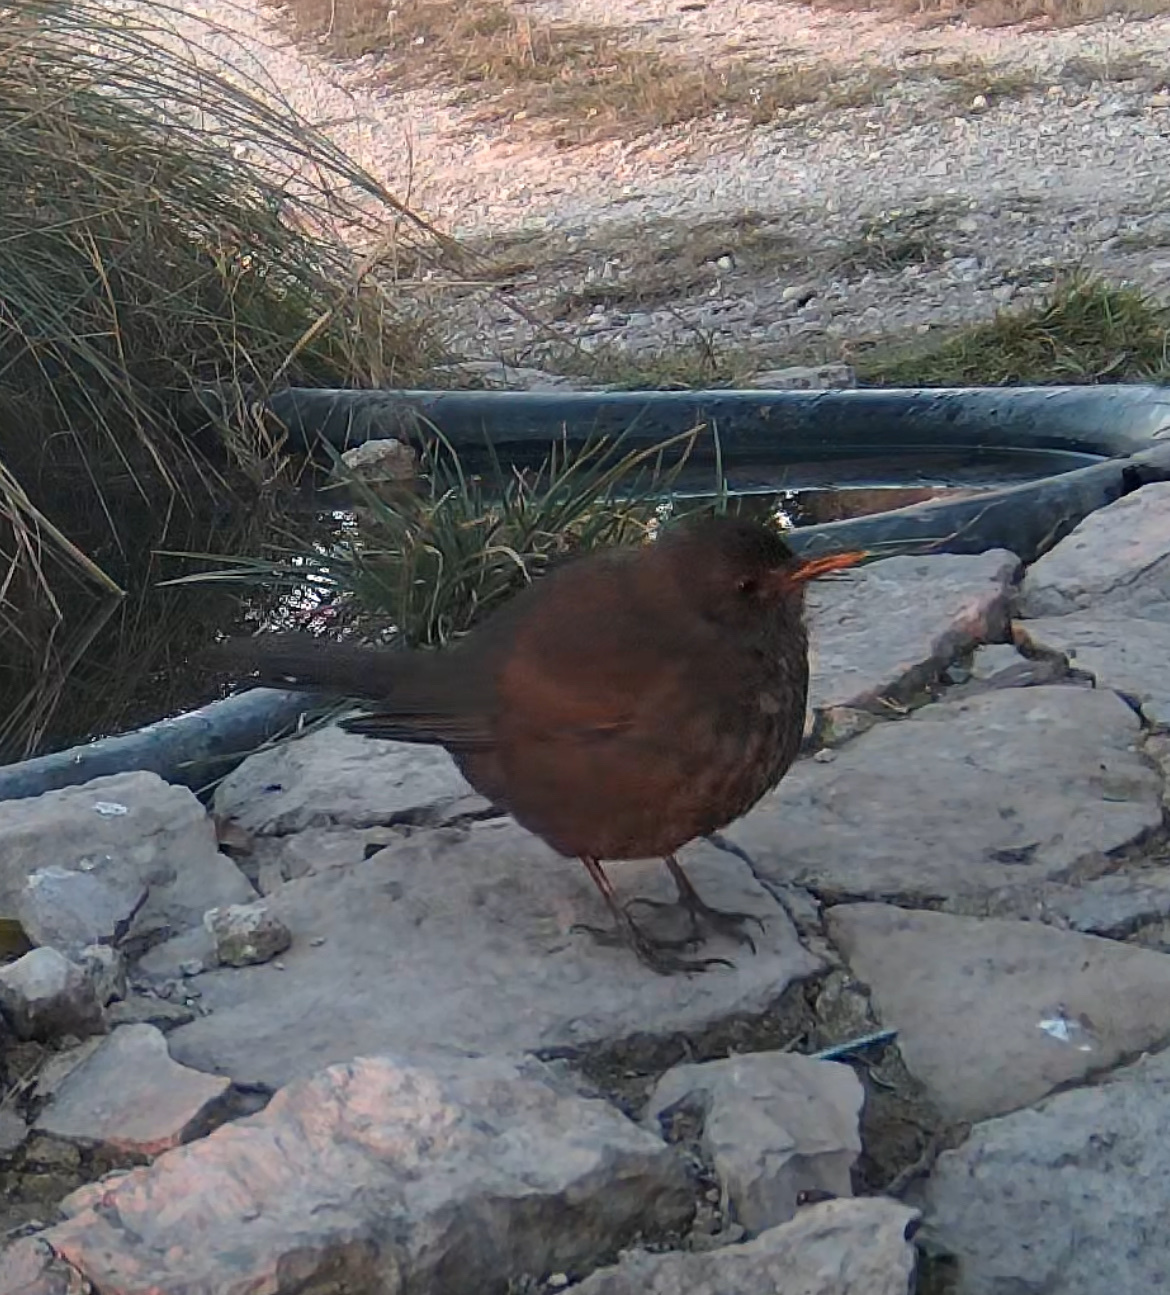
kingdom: Animalia
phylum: Chordata
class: Aves
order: Passeriformes
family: Turdidae
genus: Turdus
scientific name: Turdus merula
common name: Common blackbird
